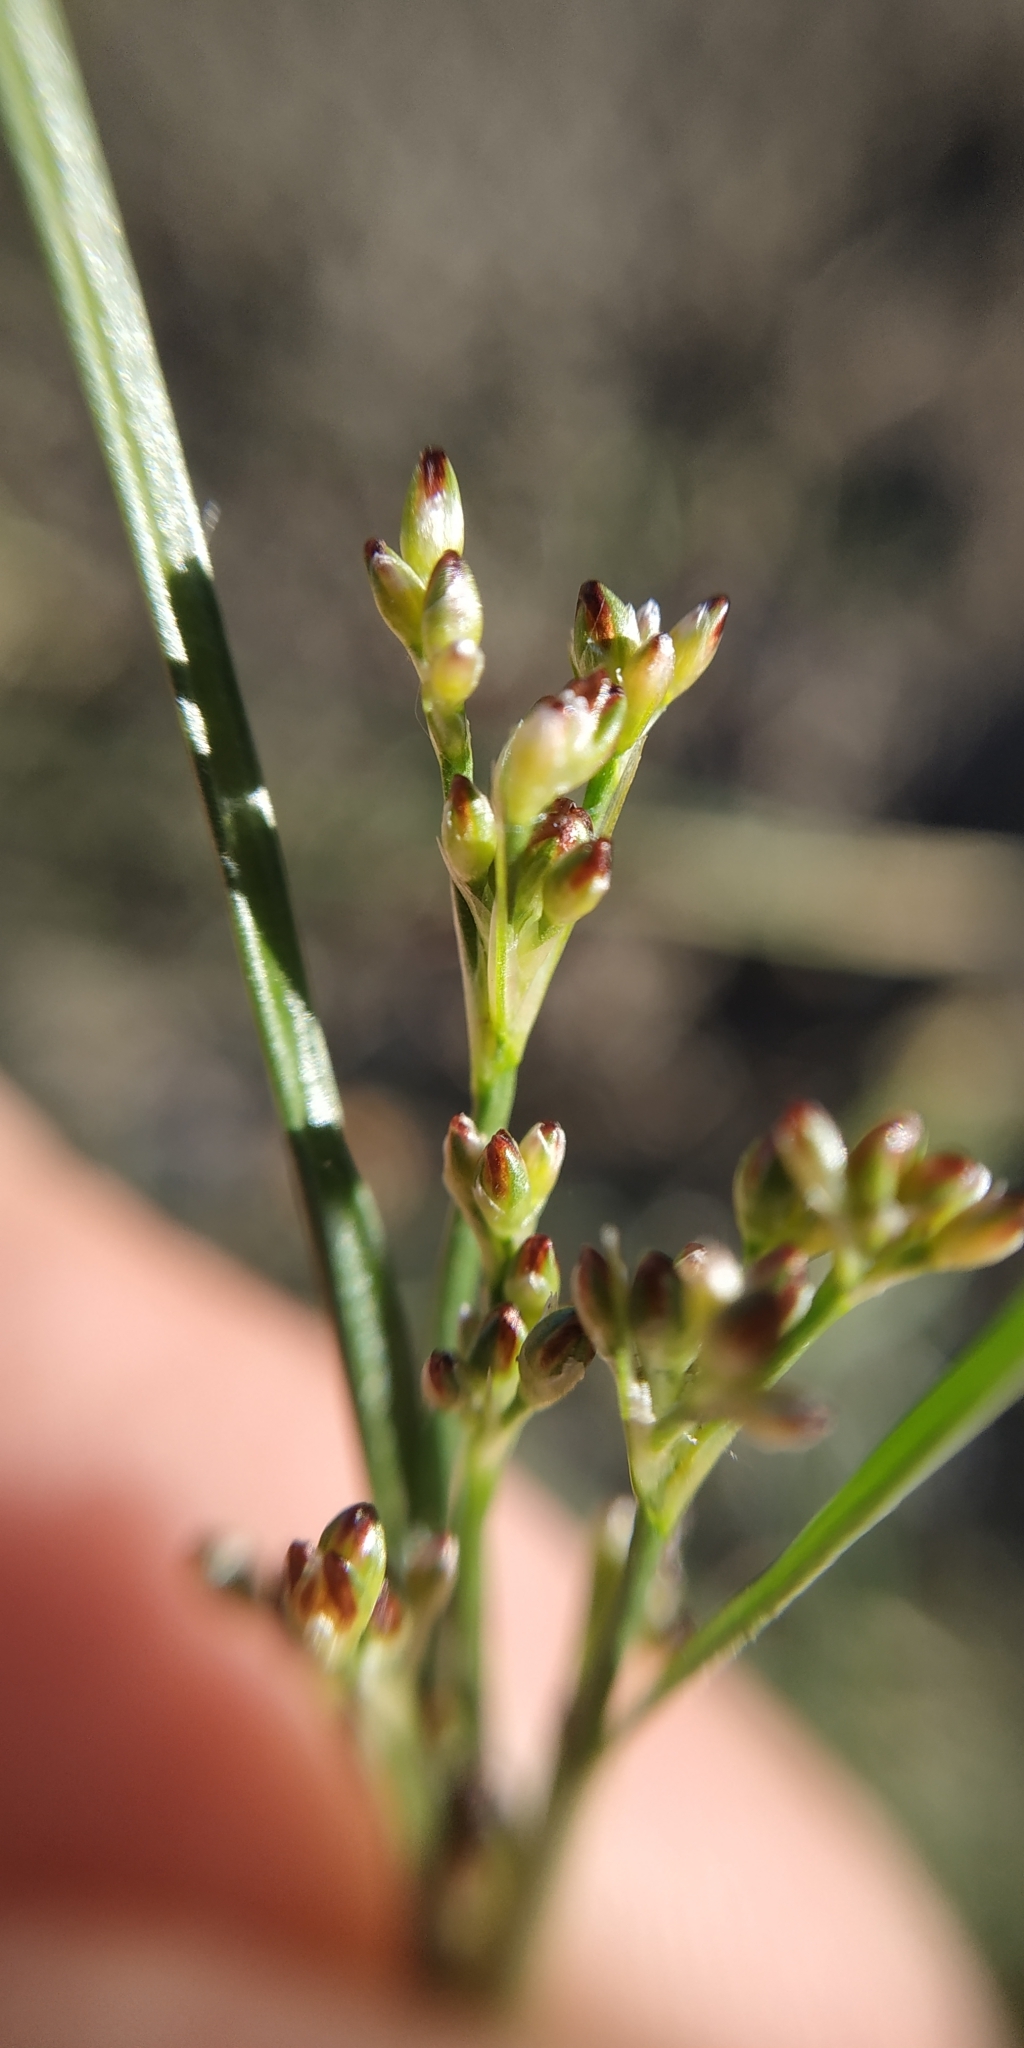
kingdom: Plantae
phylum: Tracheophyta
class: Liliopsida
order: Poales
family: Juncaceae
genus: Juncus
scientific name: Juncus compressus
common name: Round-fruited rush
